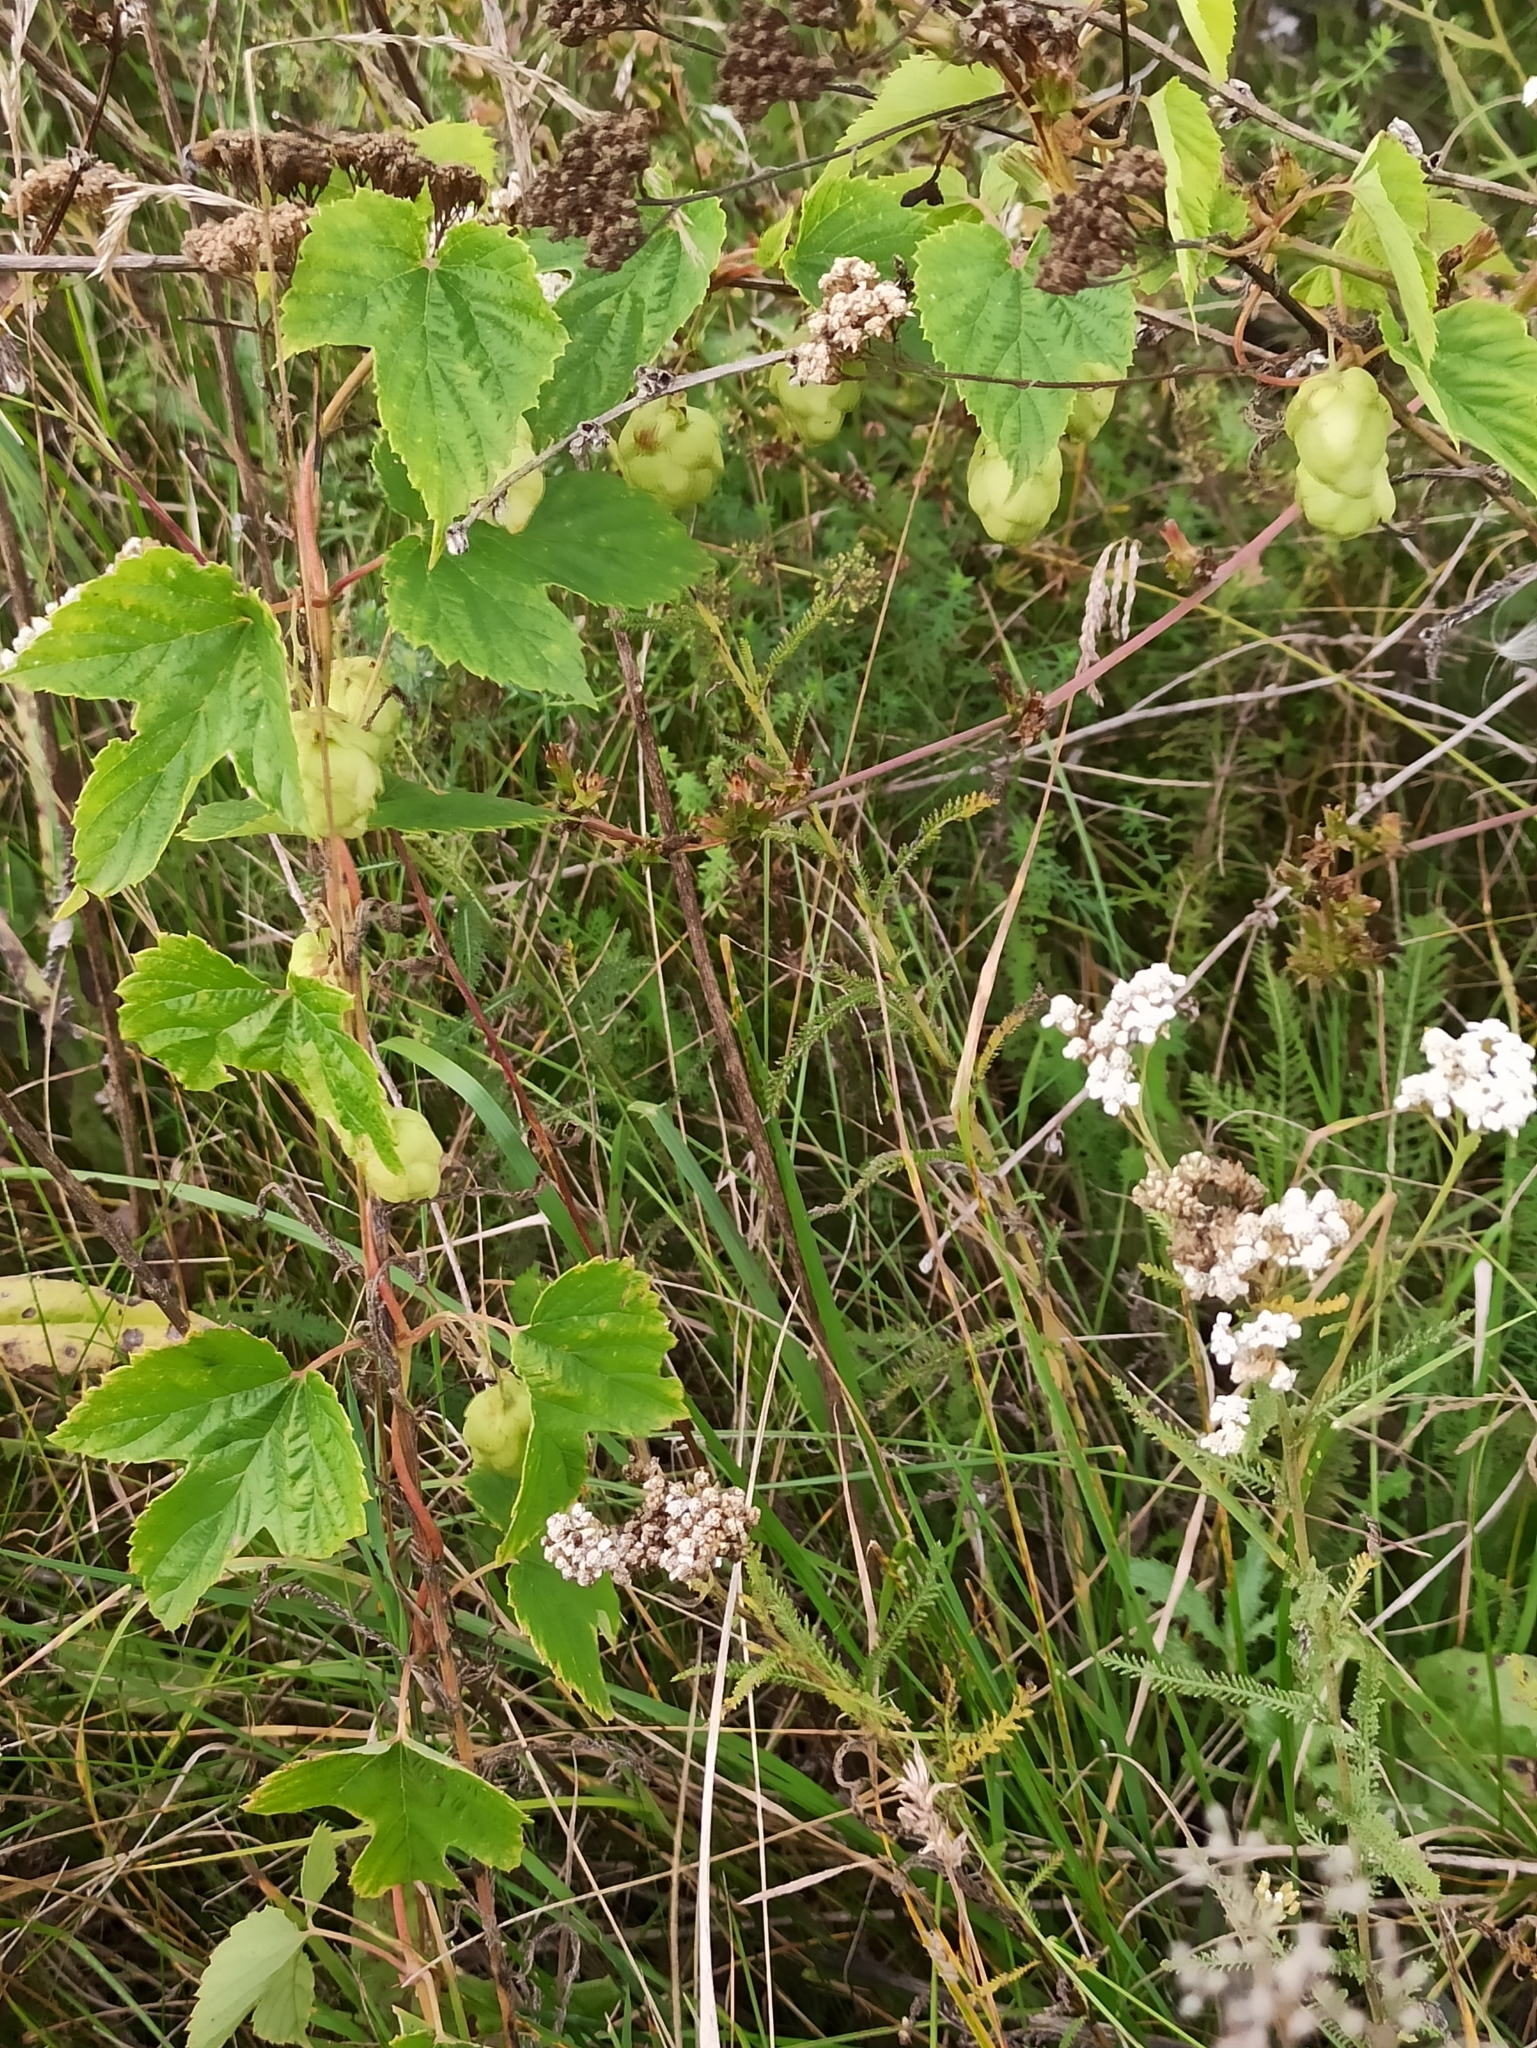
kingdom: Plantae
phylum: Tracheophyta
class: Magnoliopsida
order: Rosales
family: Cannabaceae
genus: Humulus
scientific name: Humulus lupulus
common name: Hop
